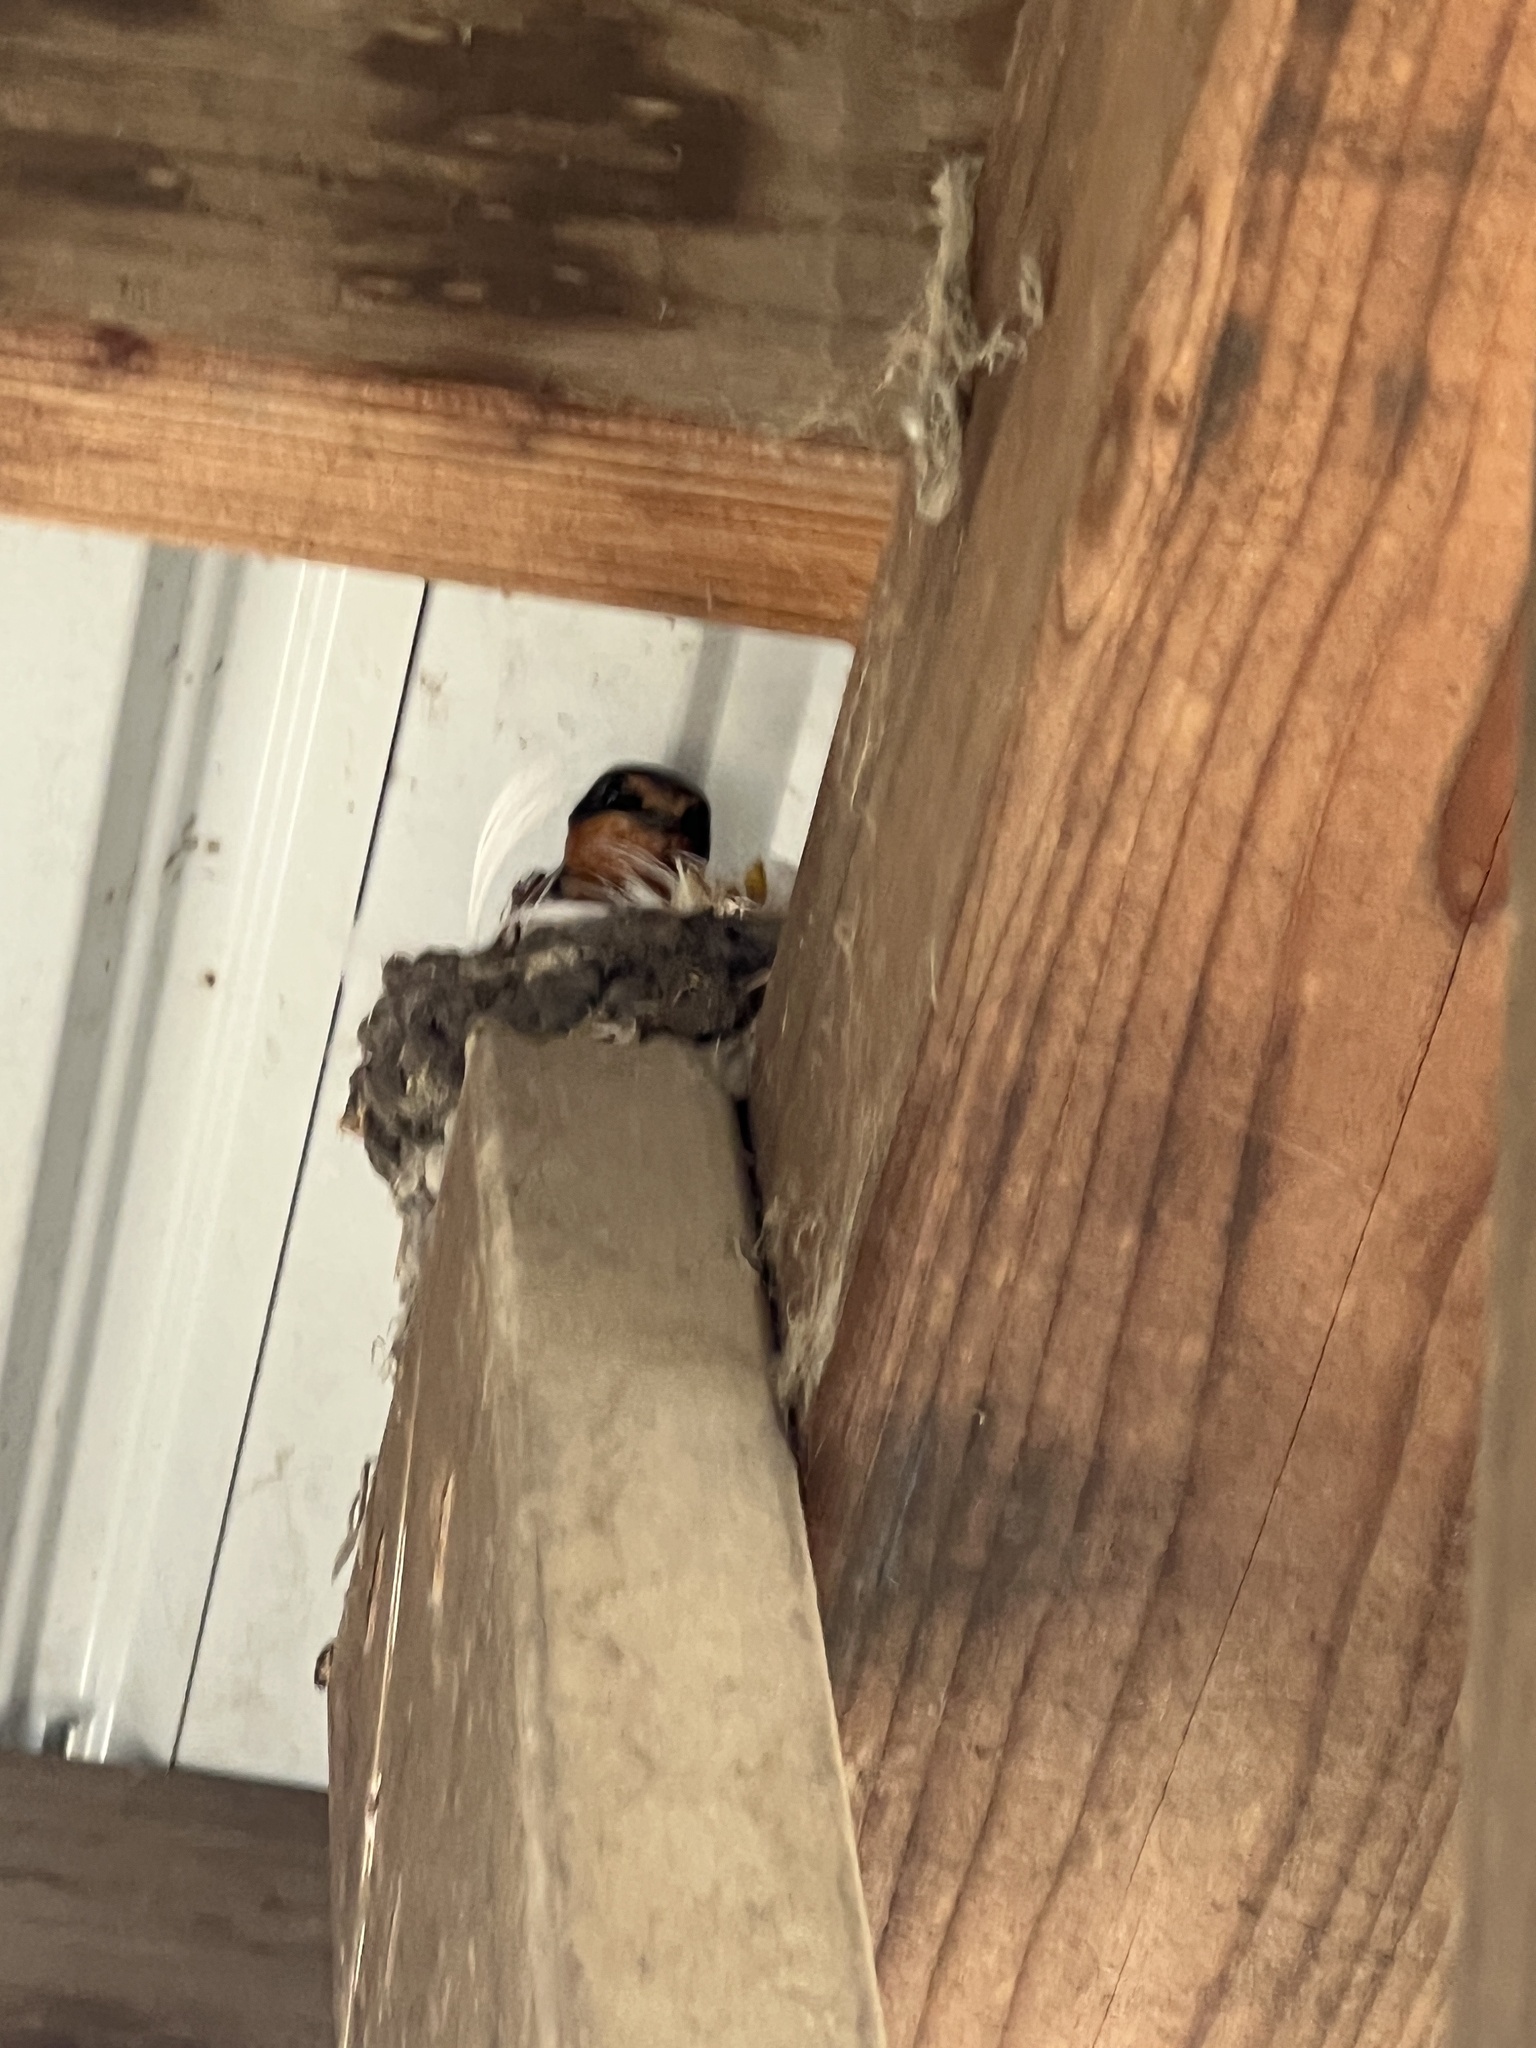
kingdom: Animalia
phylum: Chordata
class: Aves
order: Passeriformes
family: Hirundinidae
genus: Hirundo
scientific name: Hirundo rustica
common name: Barn swallow
